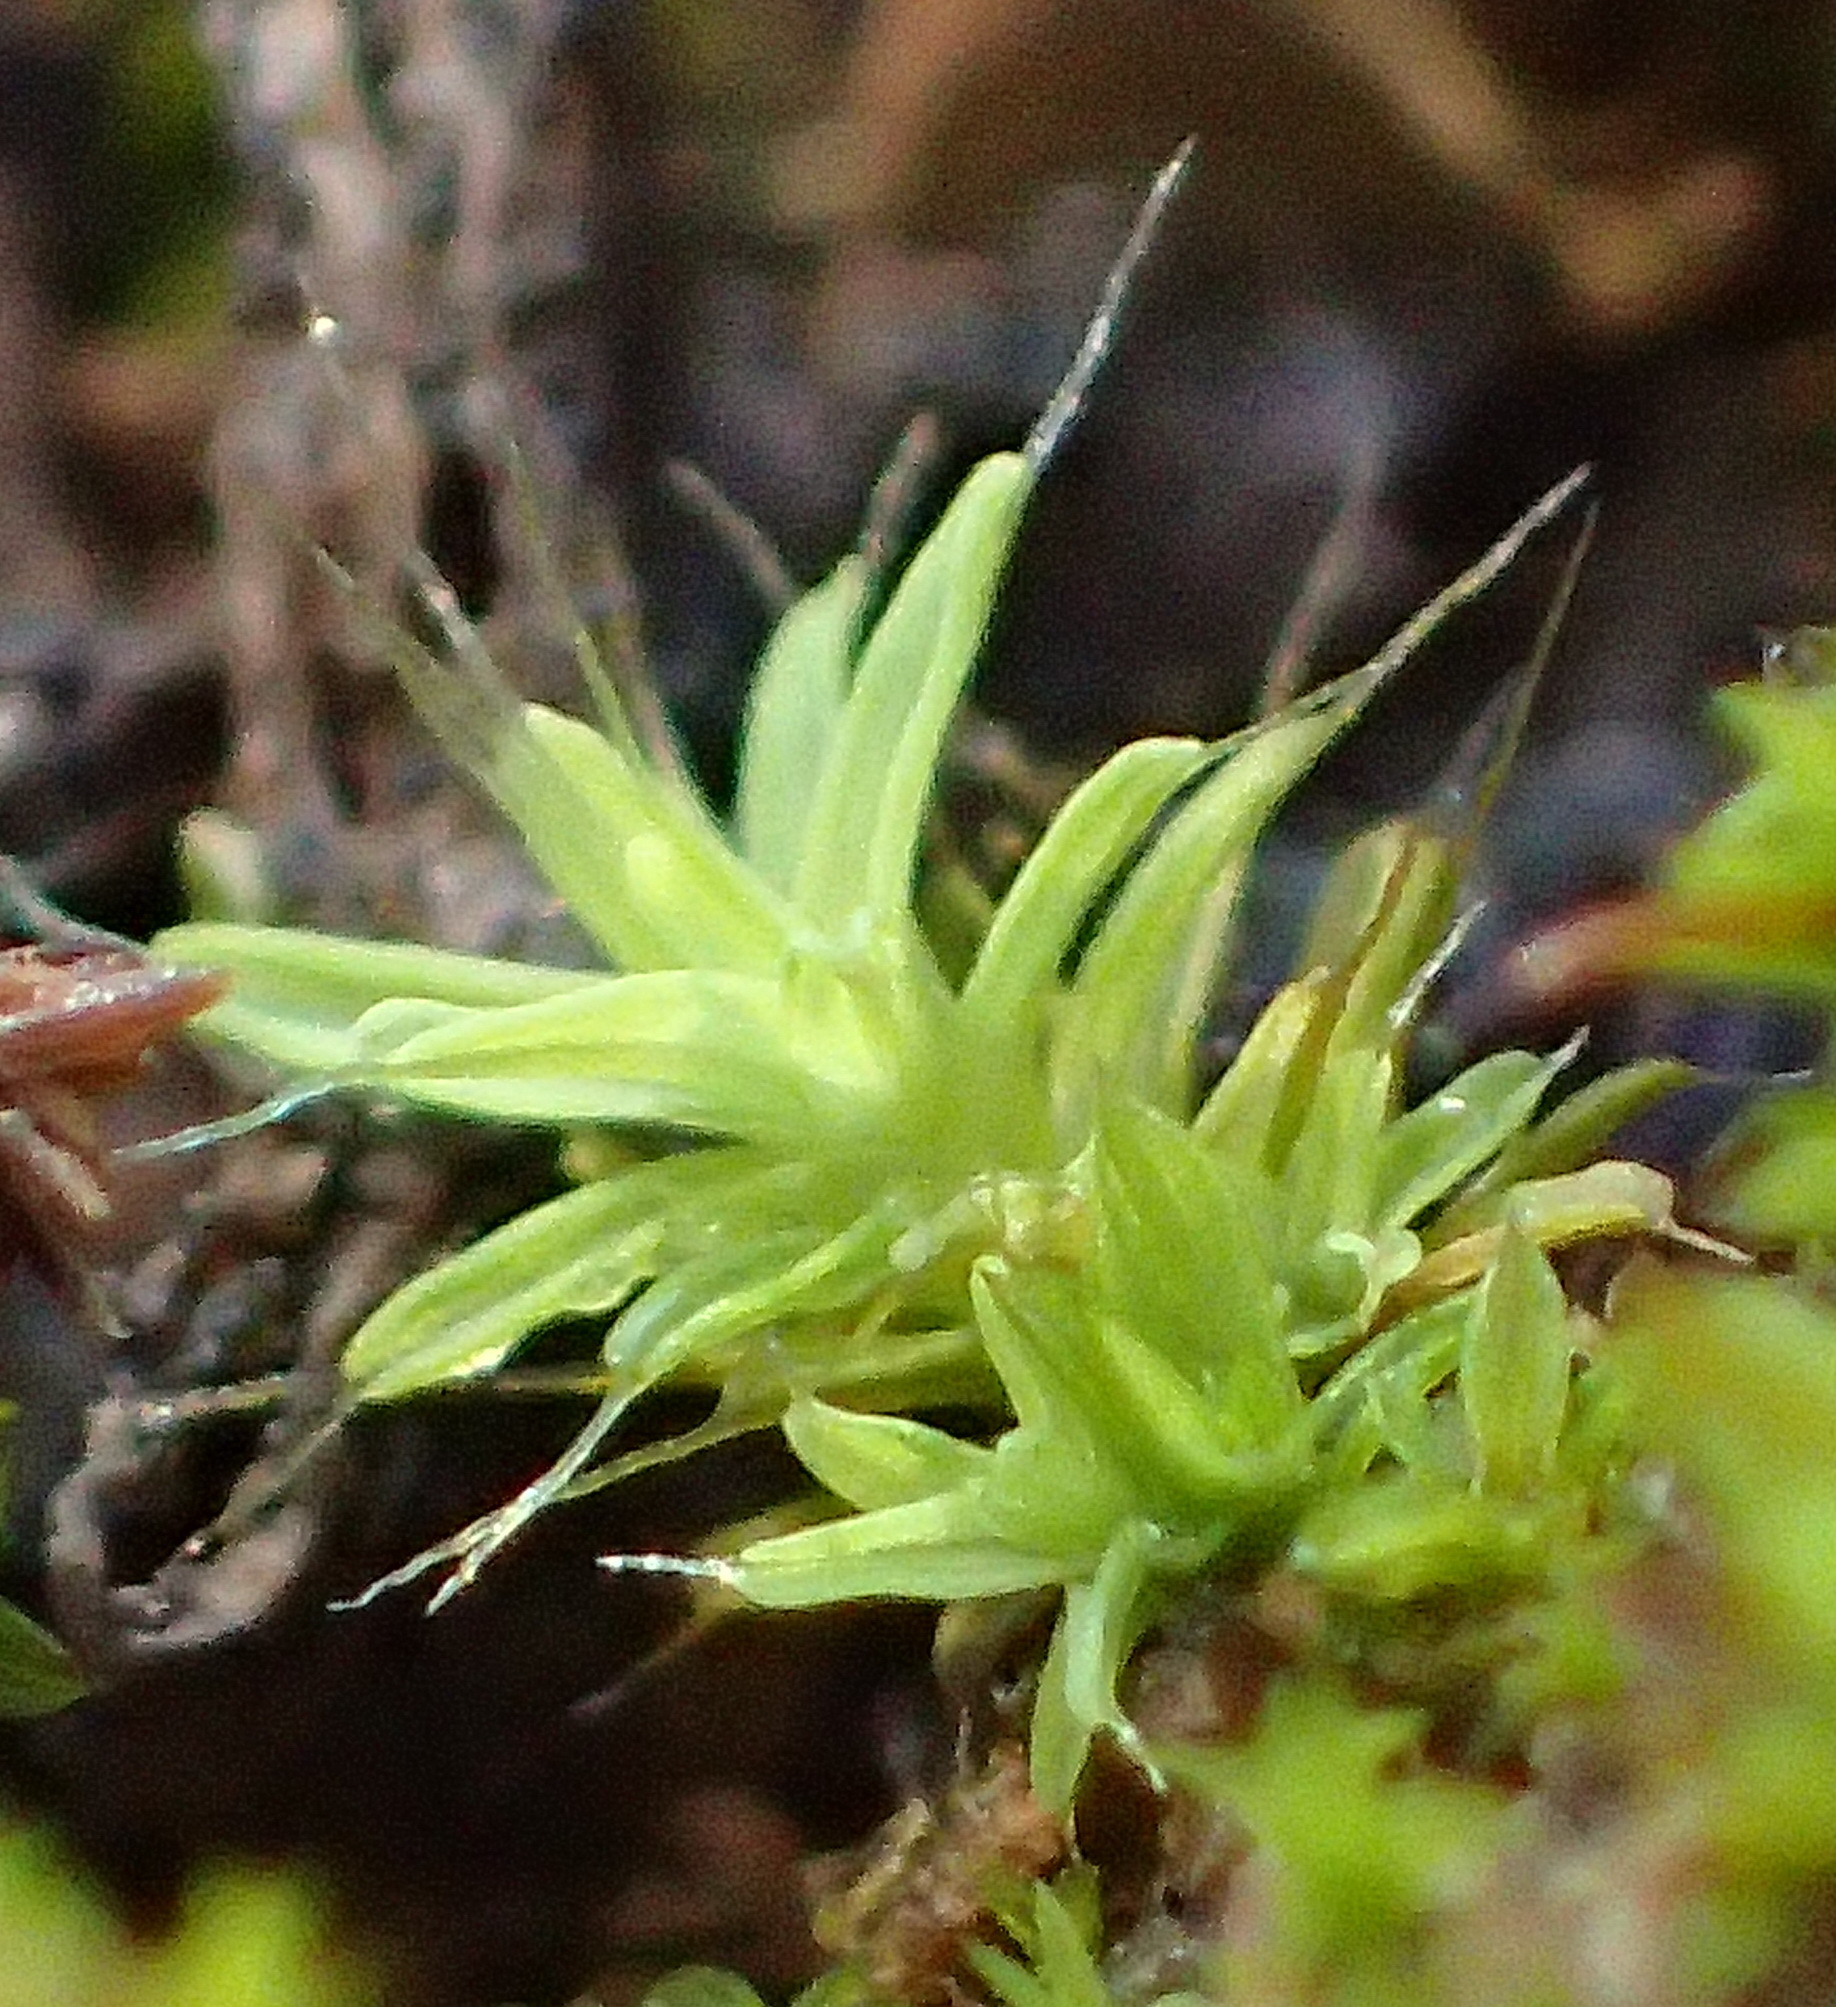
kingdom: Plantae
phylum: Bryophyta
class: Bryopsida
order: Pottiales
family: Pottiaceae
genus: Pseudocrossidium
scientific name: Pseudocrossidium crinitum
